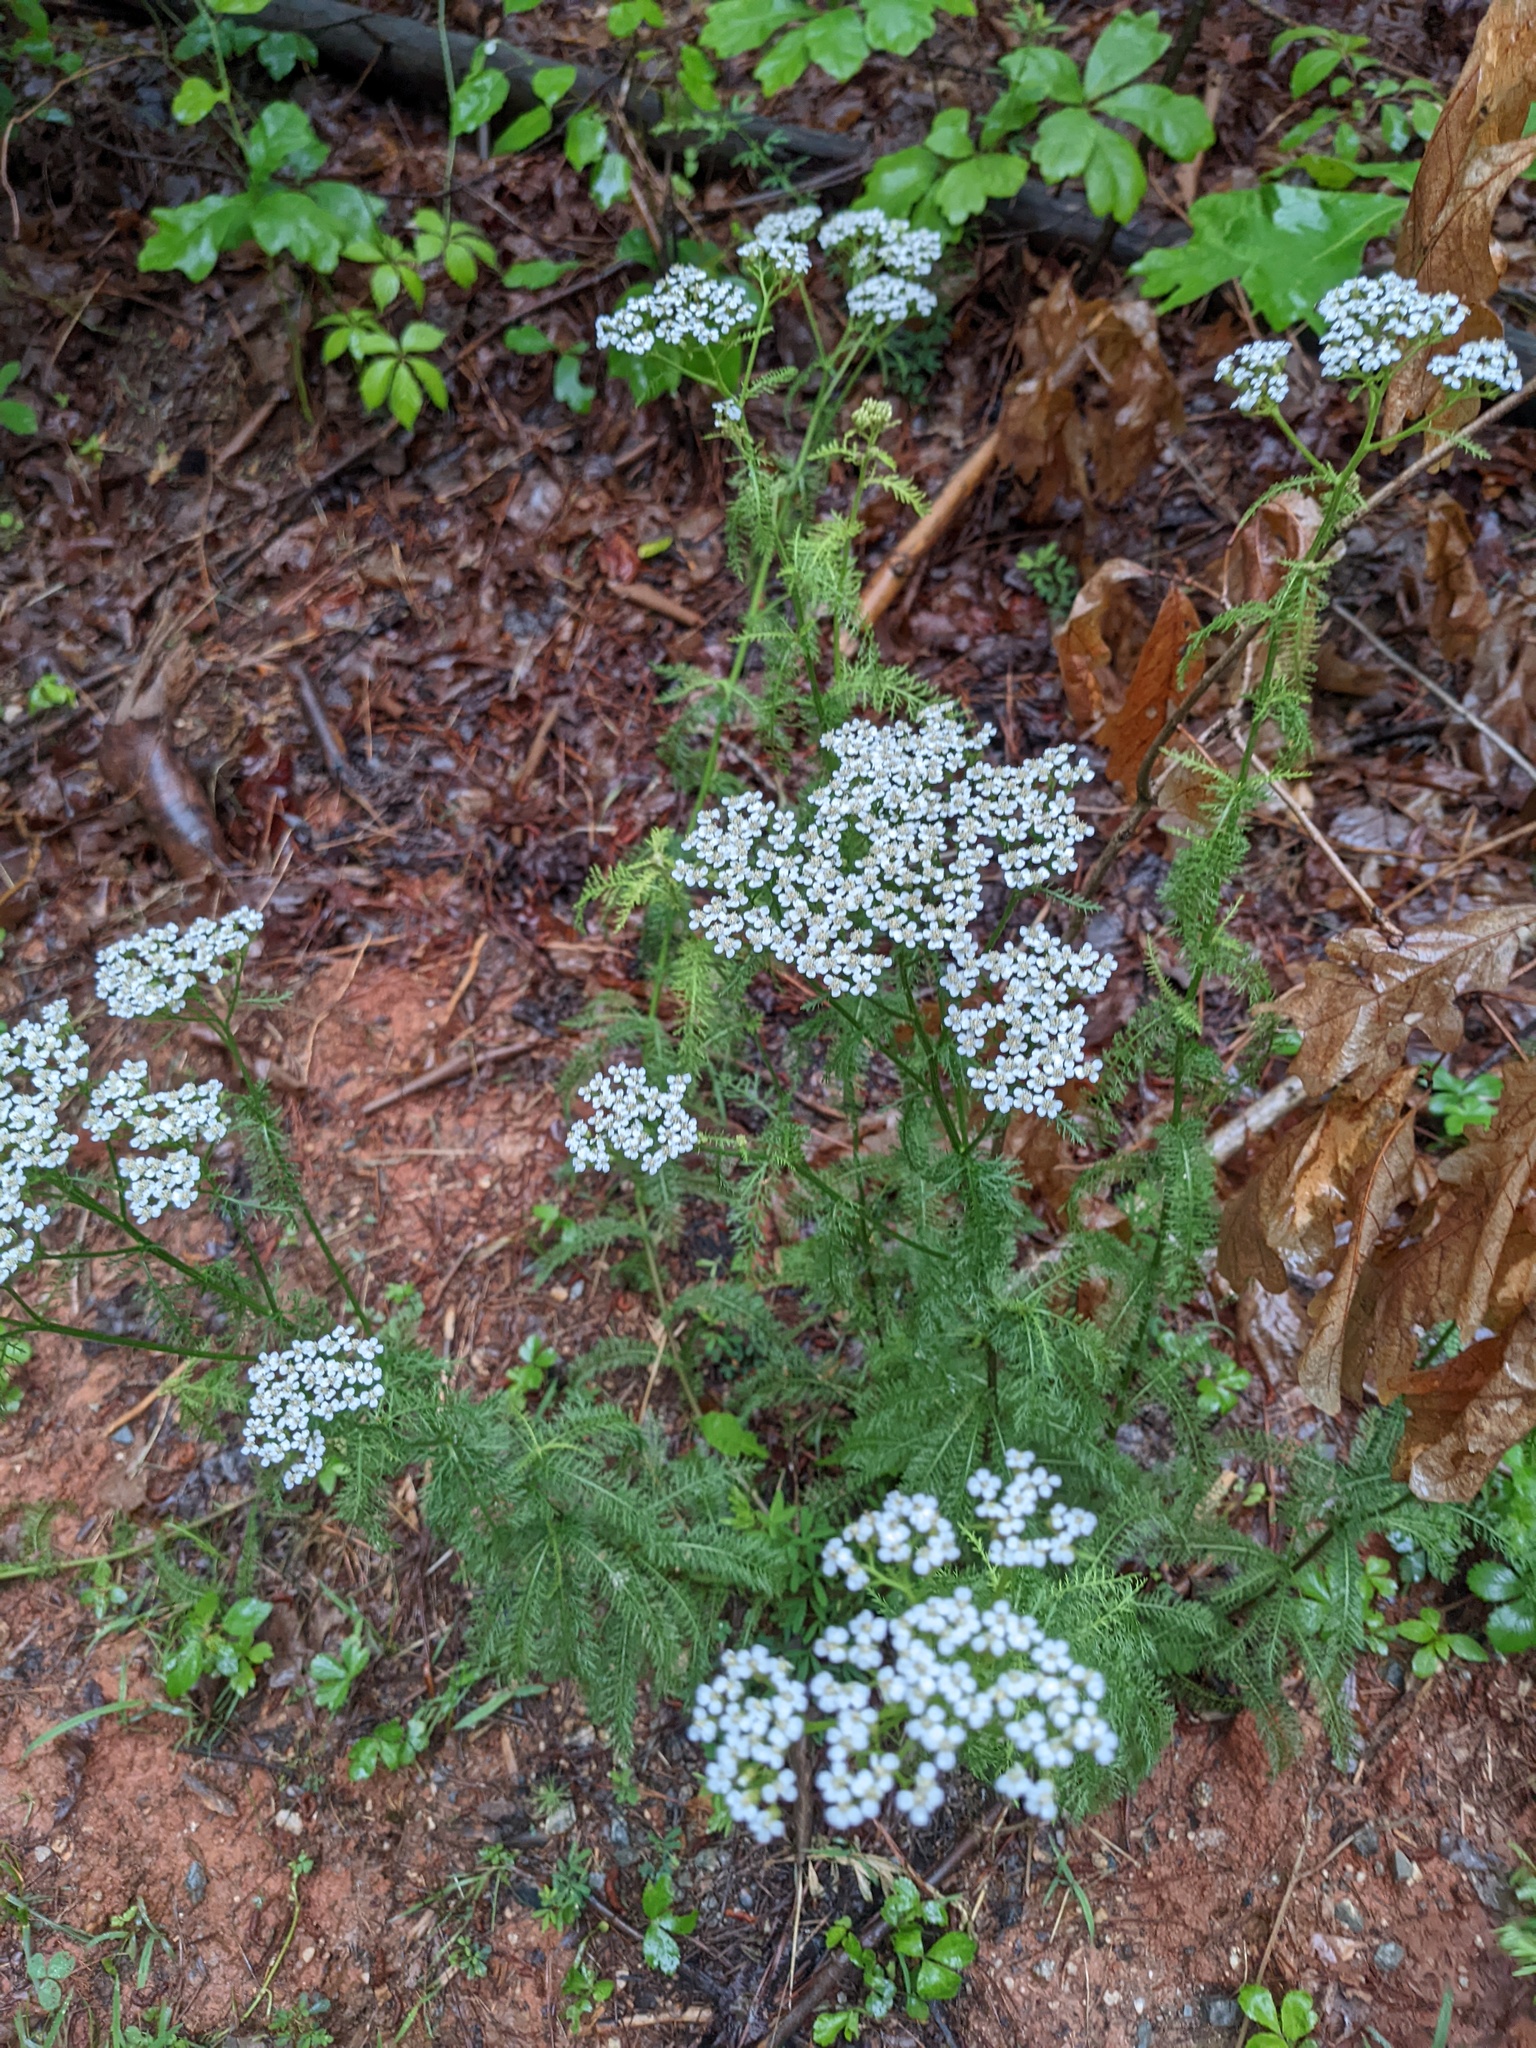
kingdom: Plantae
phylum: Tracheophyta
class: Magnoliopsida
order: Asterales
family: Asteraceae
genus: Achillea
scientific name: Achillea millefolium
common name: Yarrow
